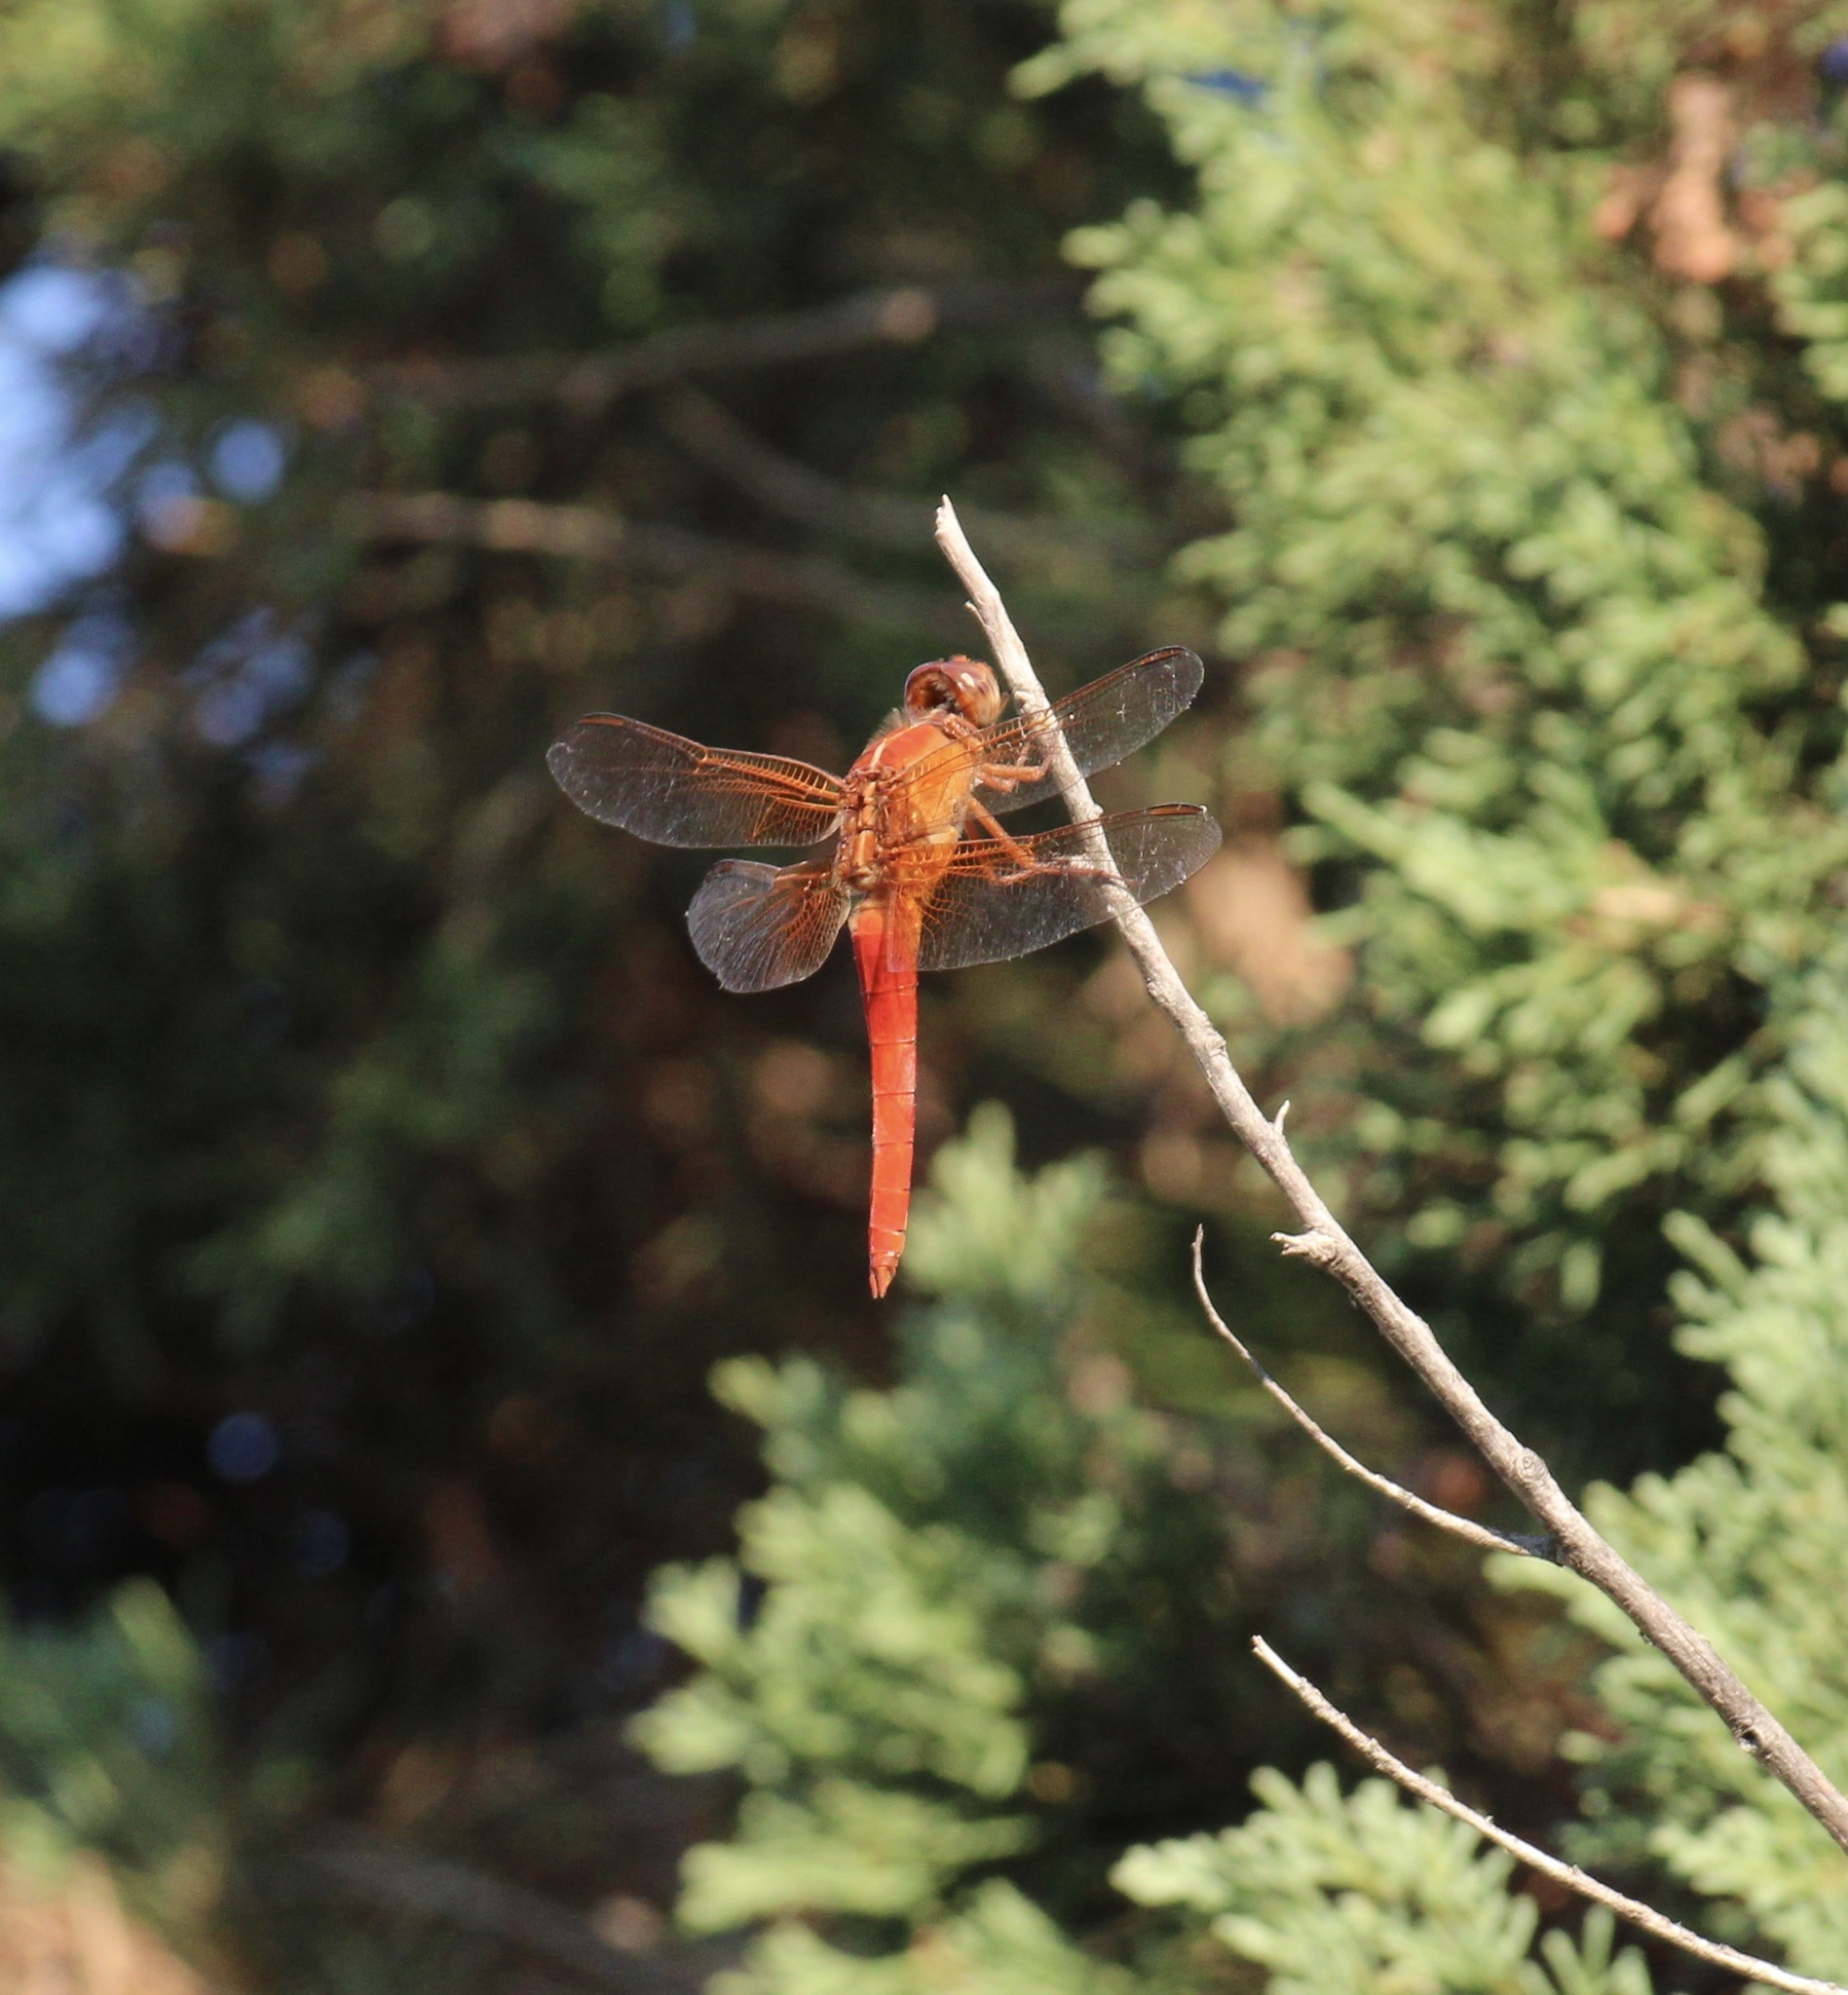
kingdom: Animalia
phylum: Arthropoda
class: Insecta
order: Odonata
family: Libellulidae
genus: Libellula
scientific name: Libellula croceipennis
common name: Neon skimmer
